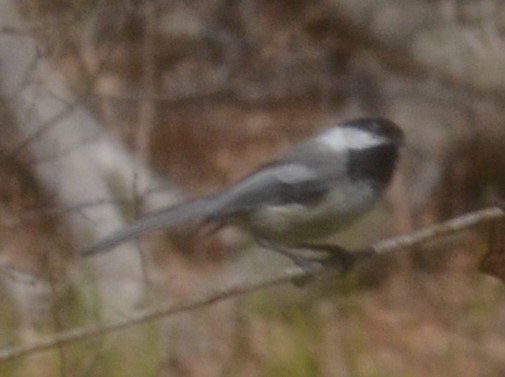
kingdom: Animalia
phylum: Chordata
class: Aves
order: Passeriformes
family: Paridae
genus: Poecile
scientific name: Poecile atricapillus
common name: Black-capped chickadee
